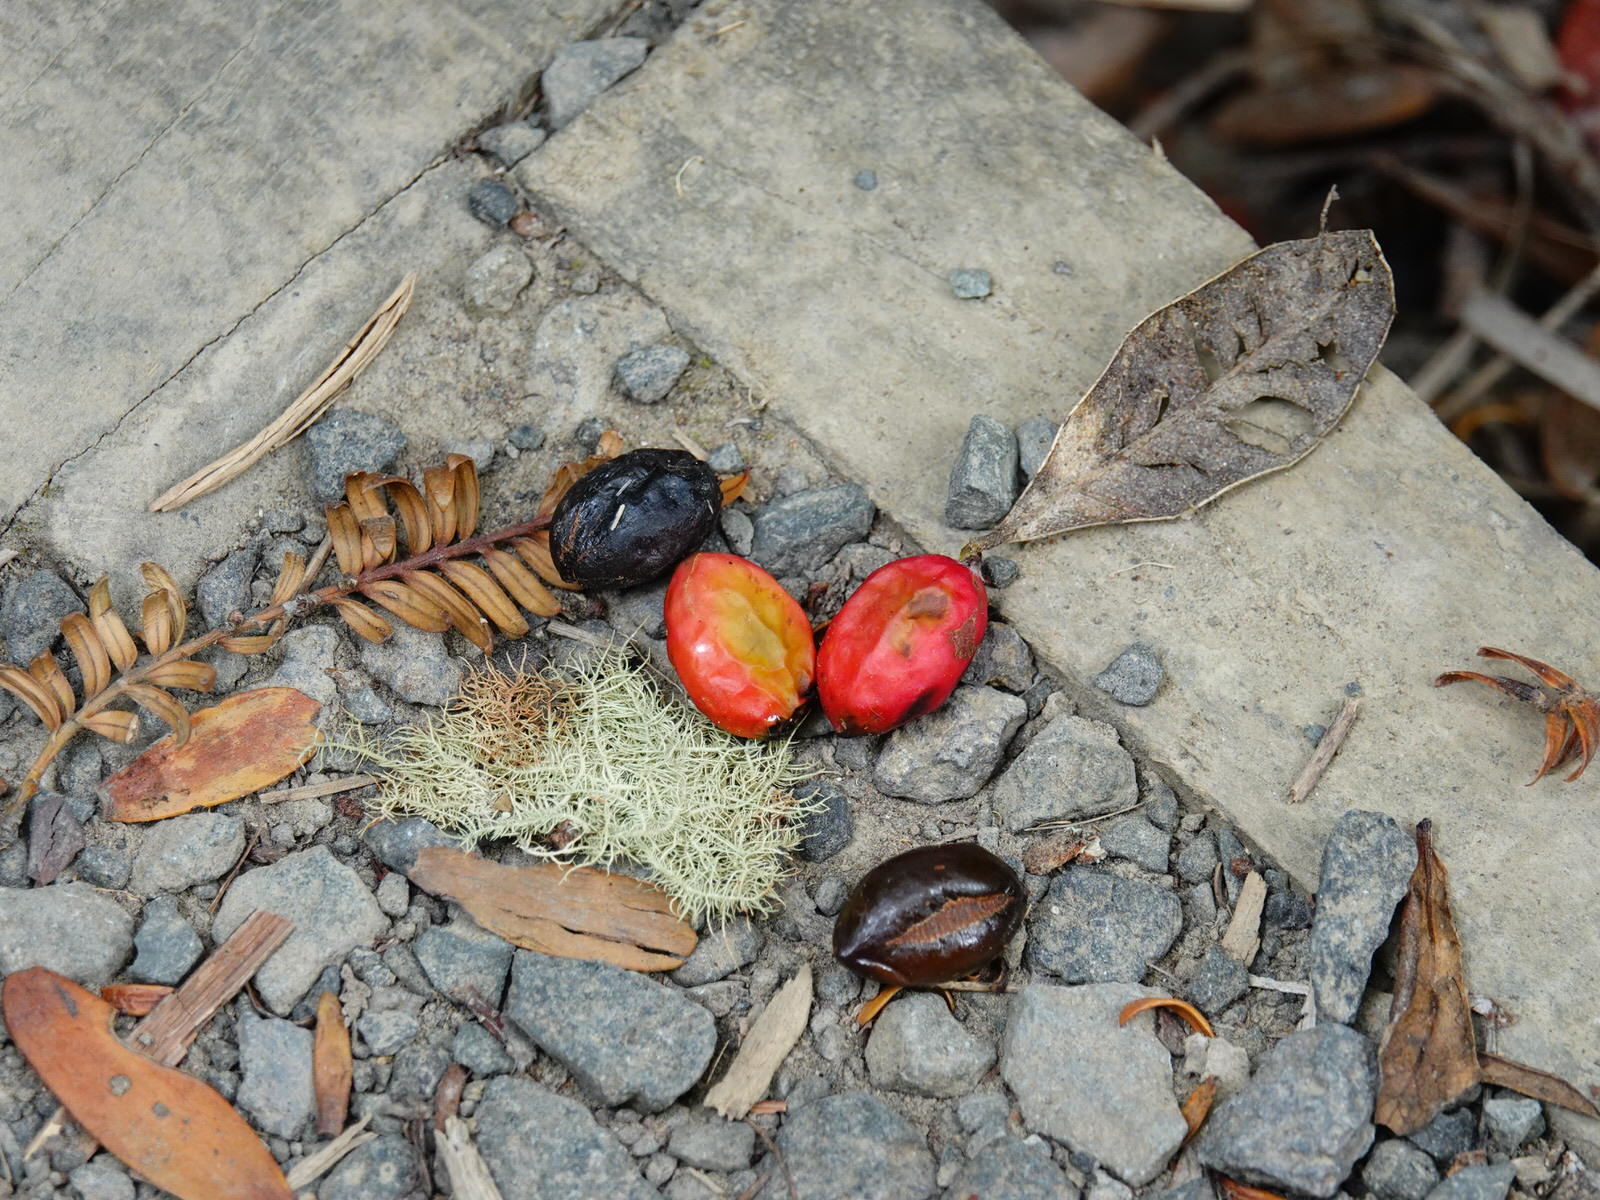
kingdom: Plantae
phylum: Tracheophyta
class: Pinopsida
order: Pinales
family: Podocarpaceae
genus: Prumnopitys
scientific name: Prumnopitys ferruginea
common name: Brown pine
